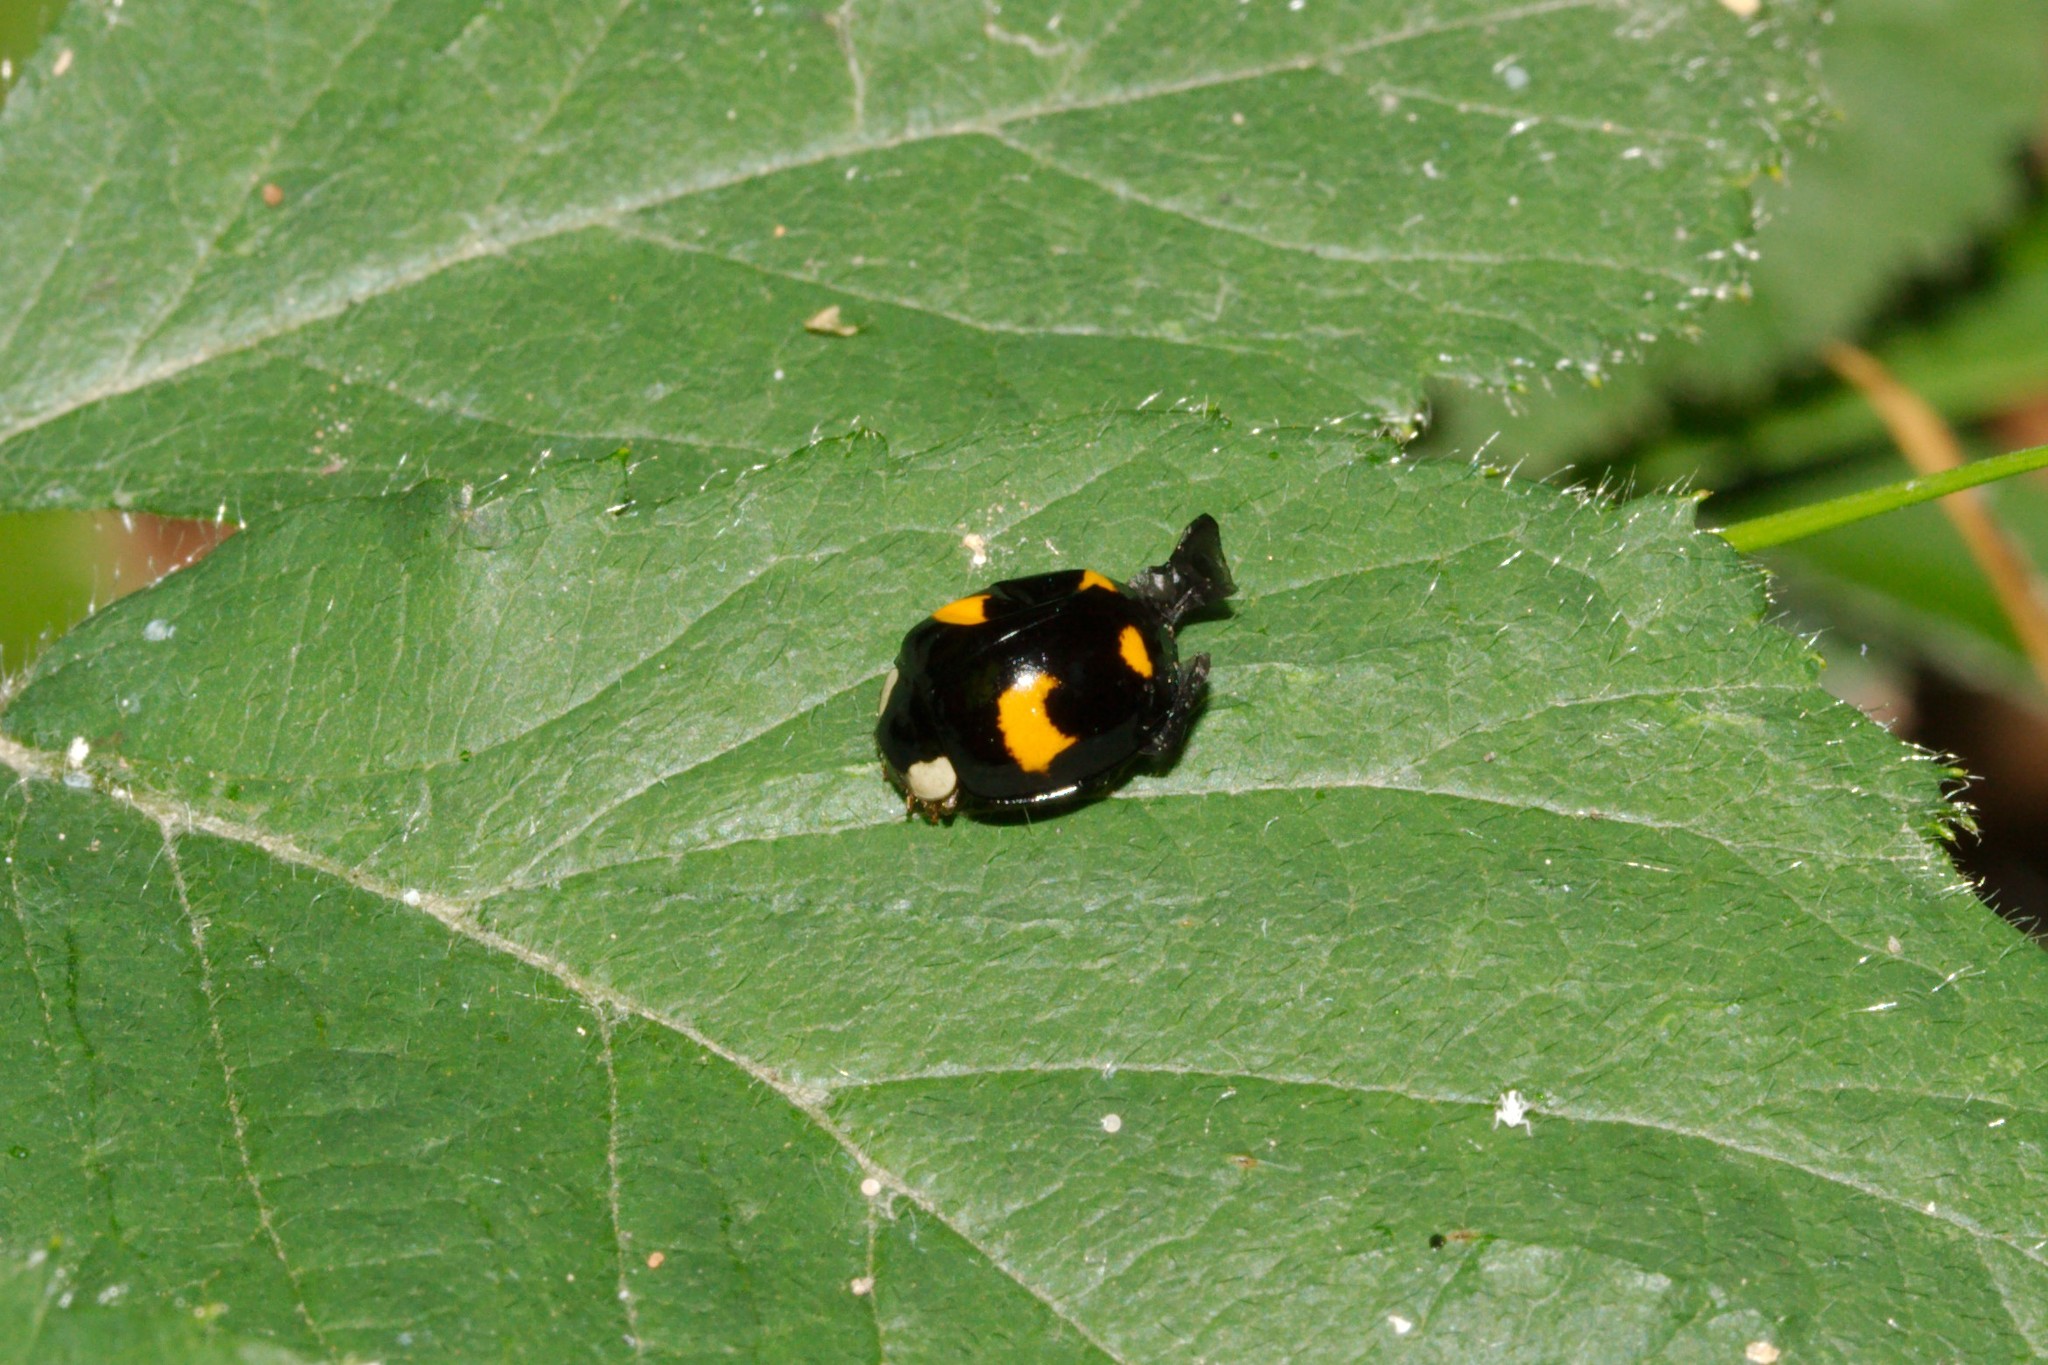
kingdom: Animalia
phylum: Arthropoda
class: Insecta
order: Coleoptera
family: Coccinellidae
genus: Harmonia
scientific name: Harmonia axyridis
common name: Harlequin ladybird
